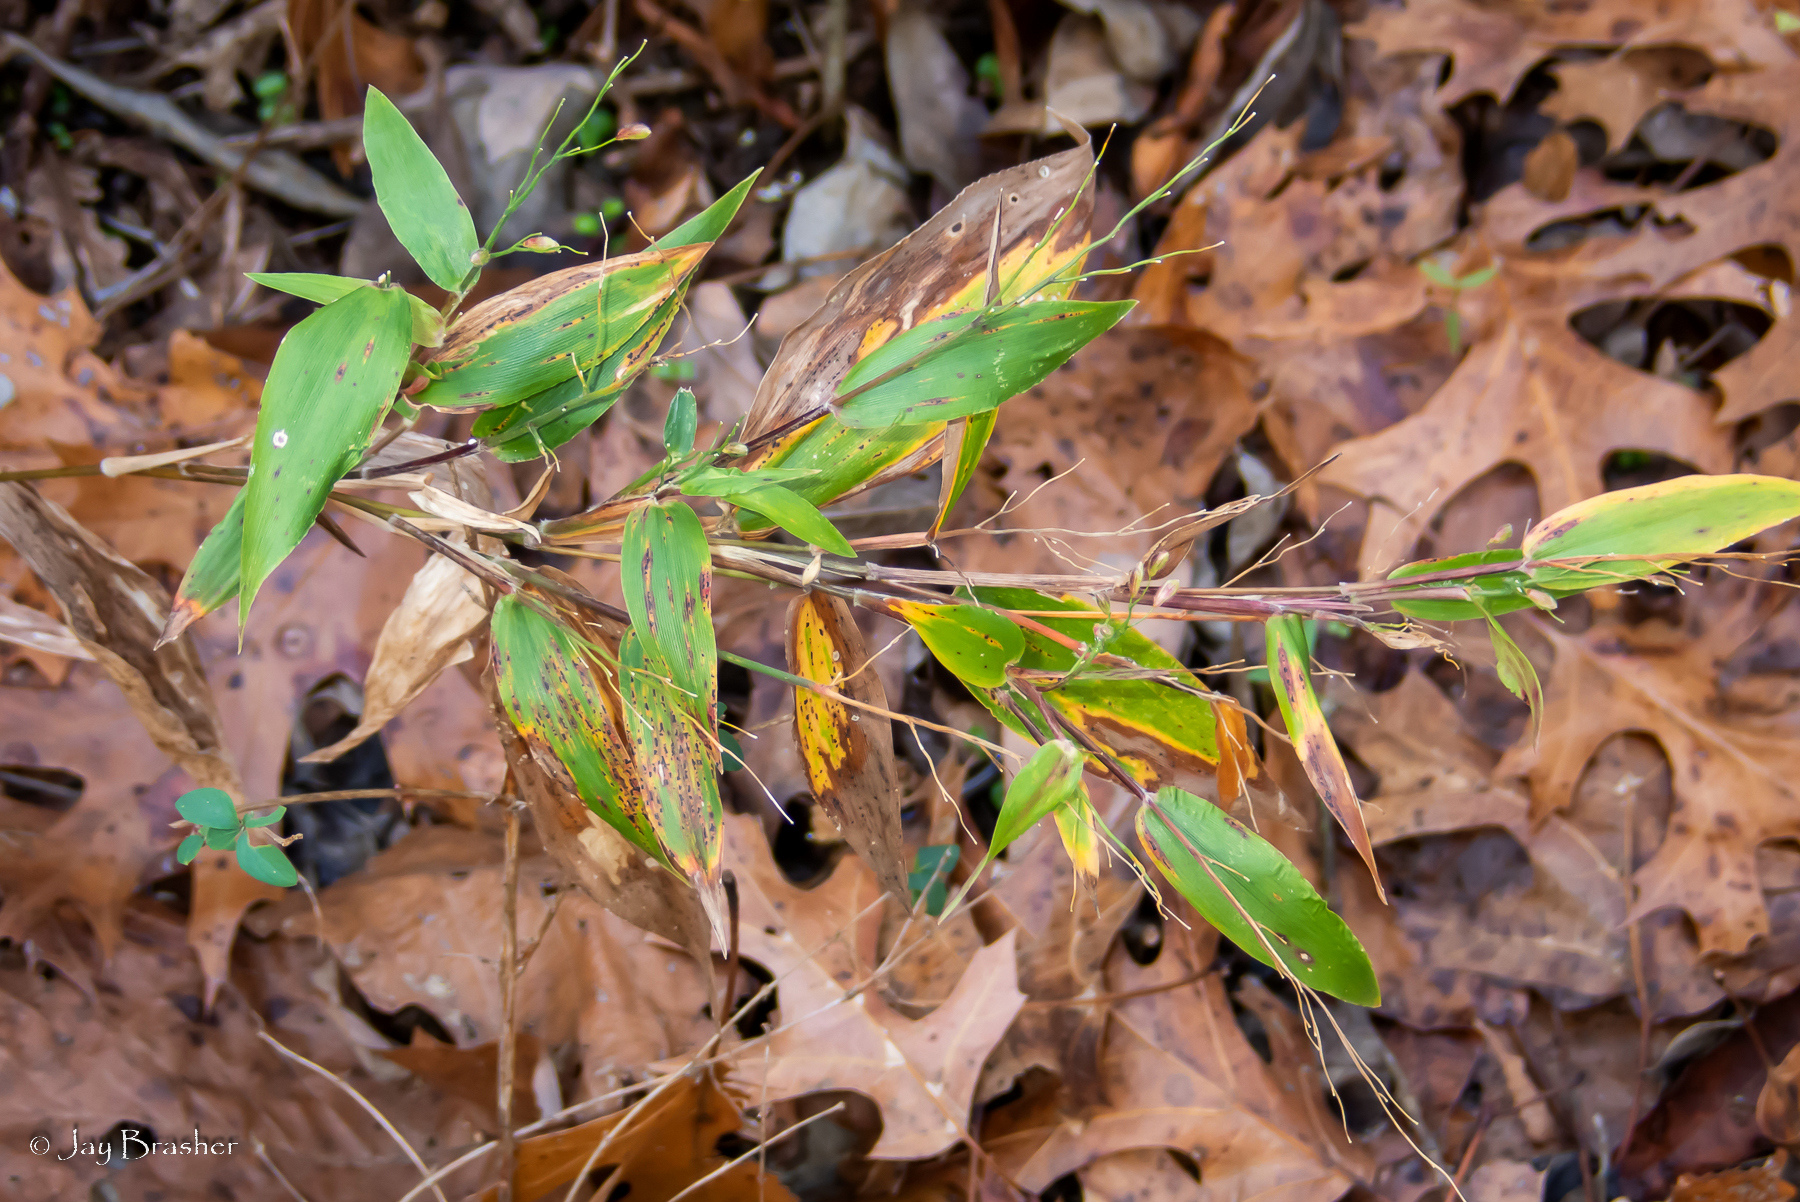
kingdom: Plantae
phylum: Tracheophyta
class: Liliopsida
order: Poales
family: Poaceae
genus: Dichanthelium
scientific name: Dichanthelium boscii
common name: Bosc's panic grass
